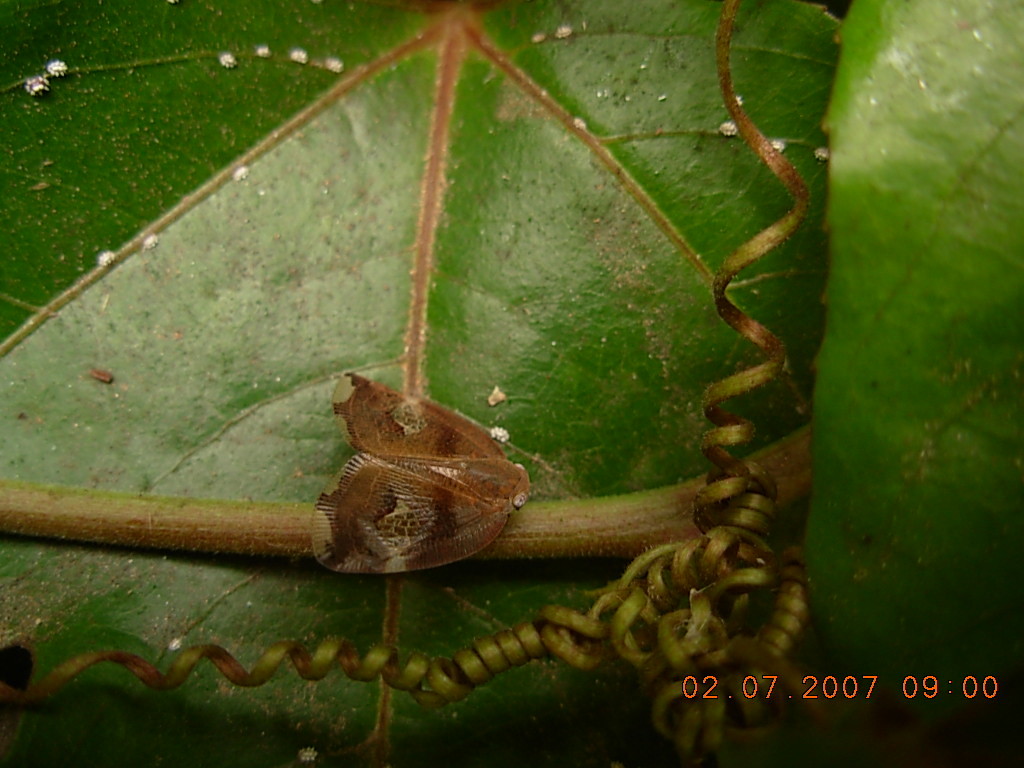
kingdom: Animalia
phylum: Arthropoda
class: Insecta
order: Hemiptera
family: Ricaniidae
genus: Ricania
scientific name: Ricania fenestrata
